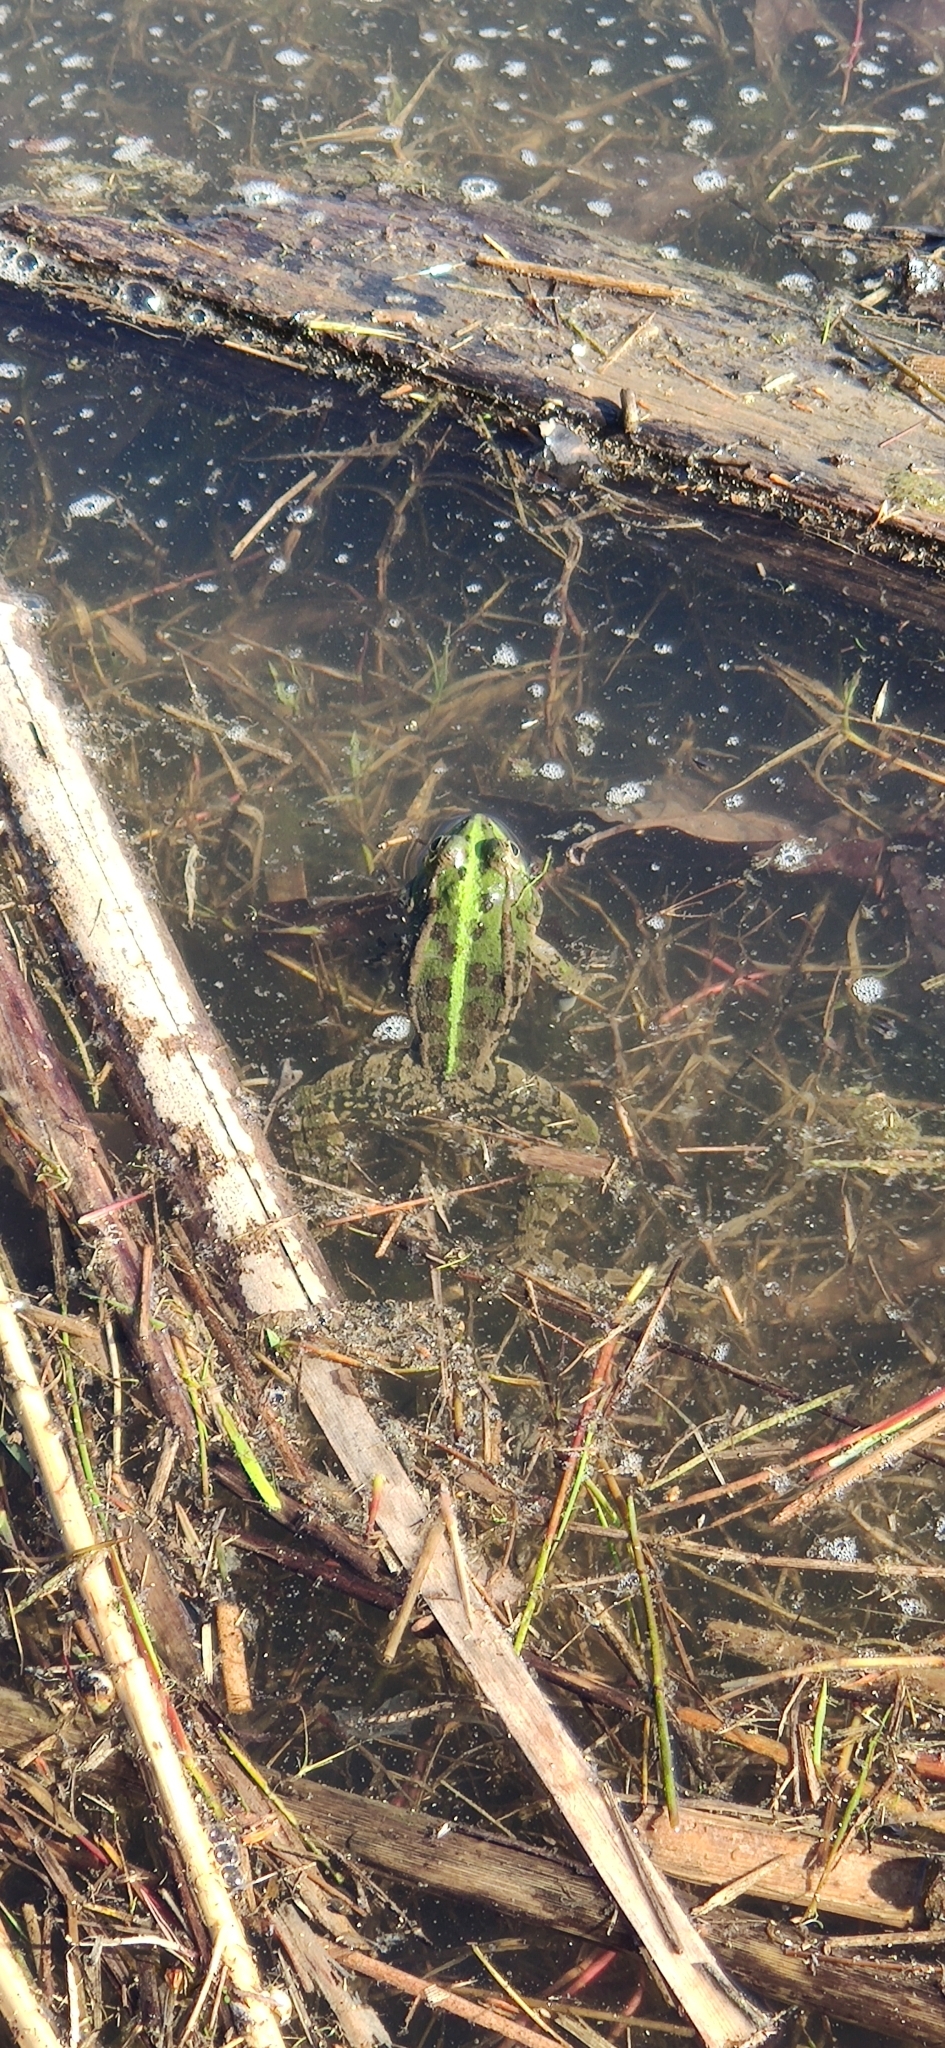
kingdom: Animalia
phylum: Chordata
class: Amphibia
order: Anura
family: Ranidae
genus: Pelophylax
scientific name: Pelophylax ridibundus
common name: Marsh frog
